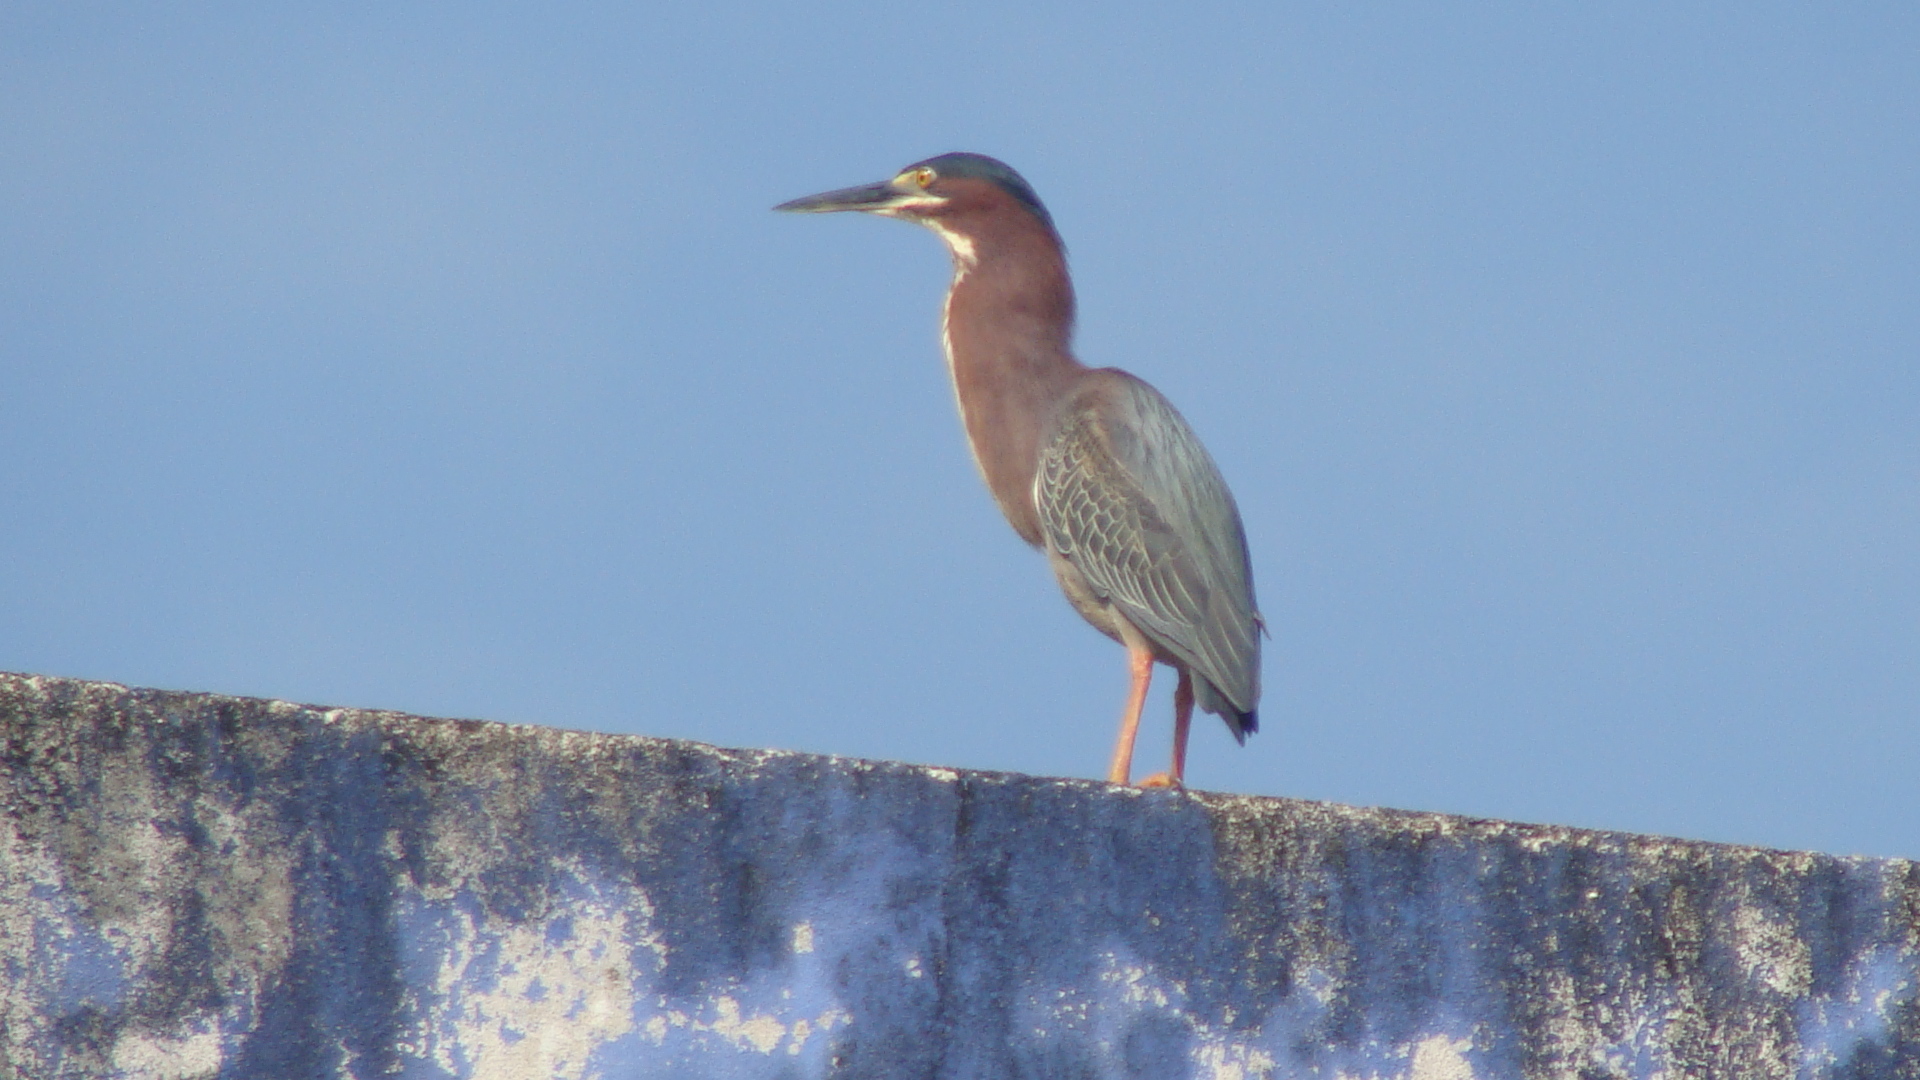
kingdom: Animalia
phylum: Chordata
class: Aves
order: Pelecaniformes
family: Ardeidae
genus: Butorides
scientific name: Butorides virescens
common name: Green heron
